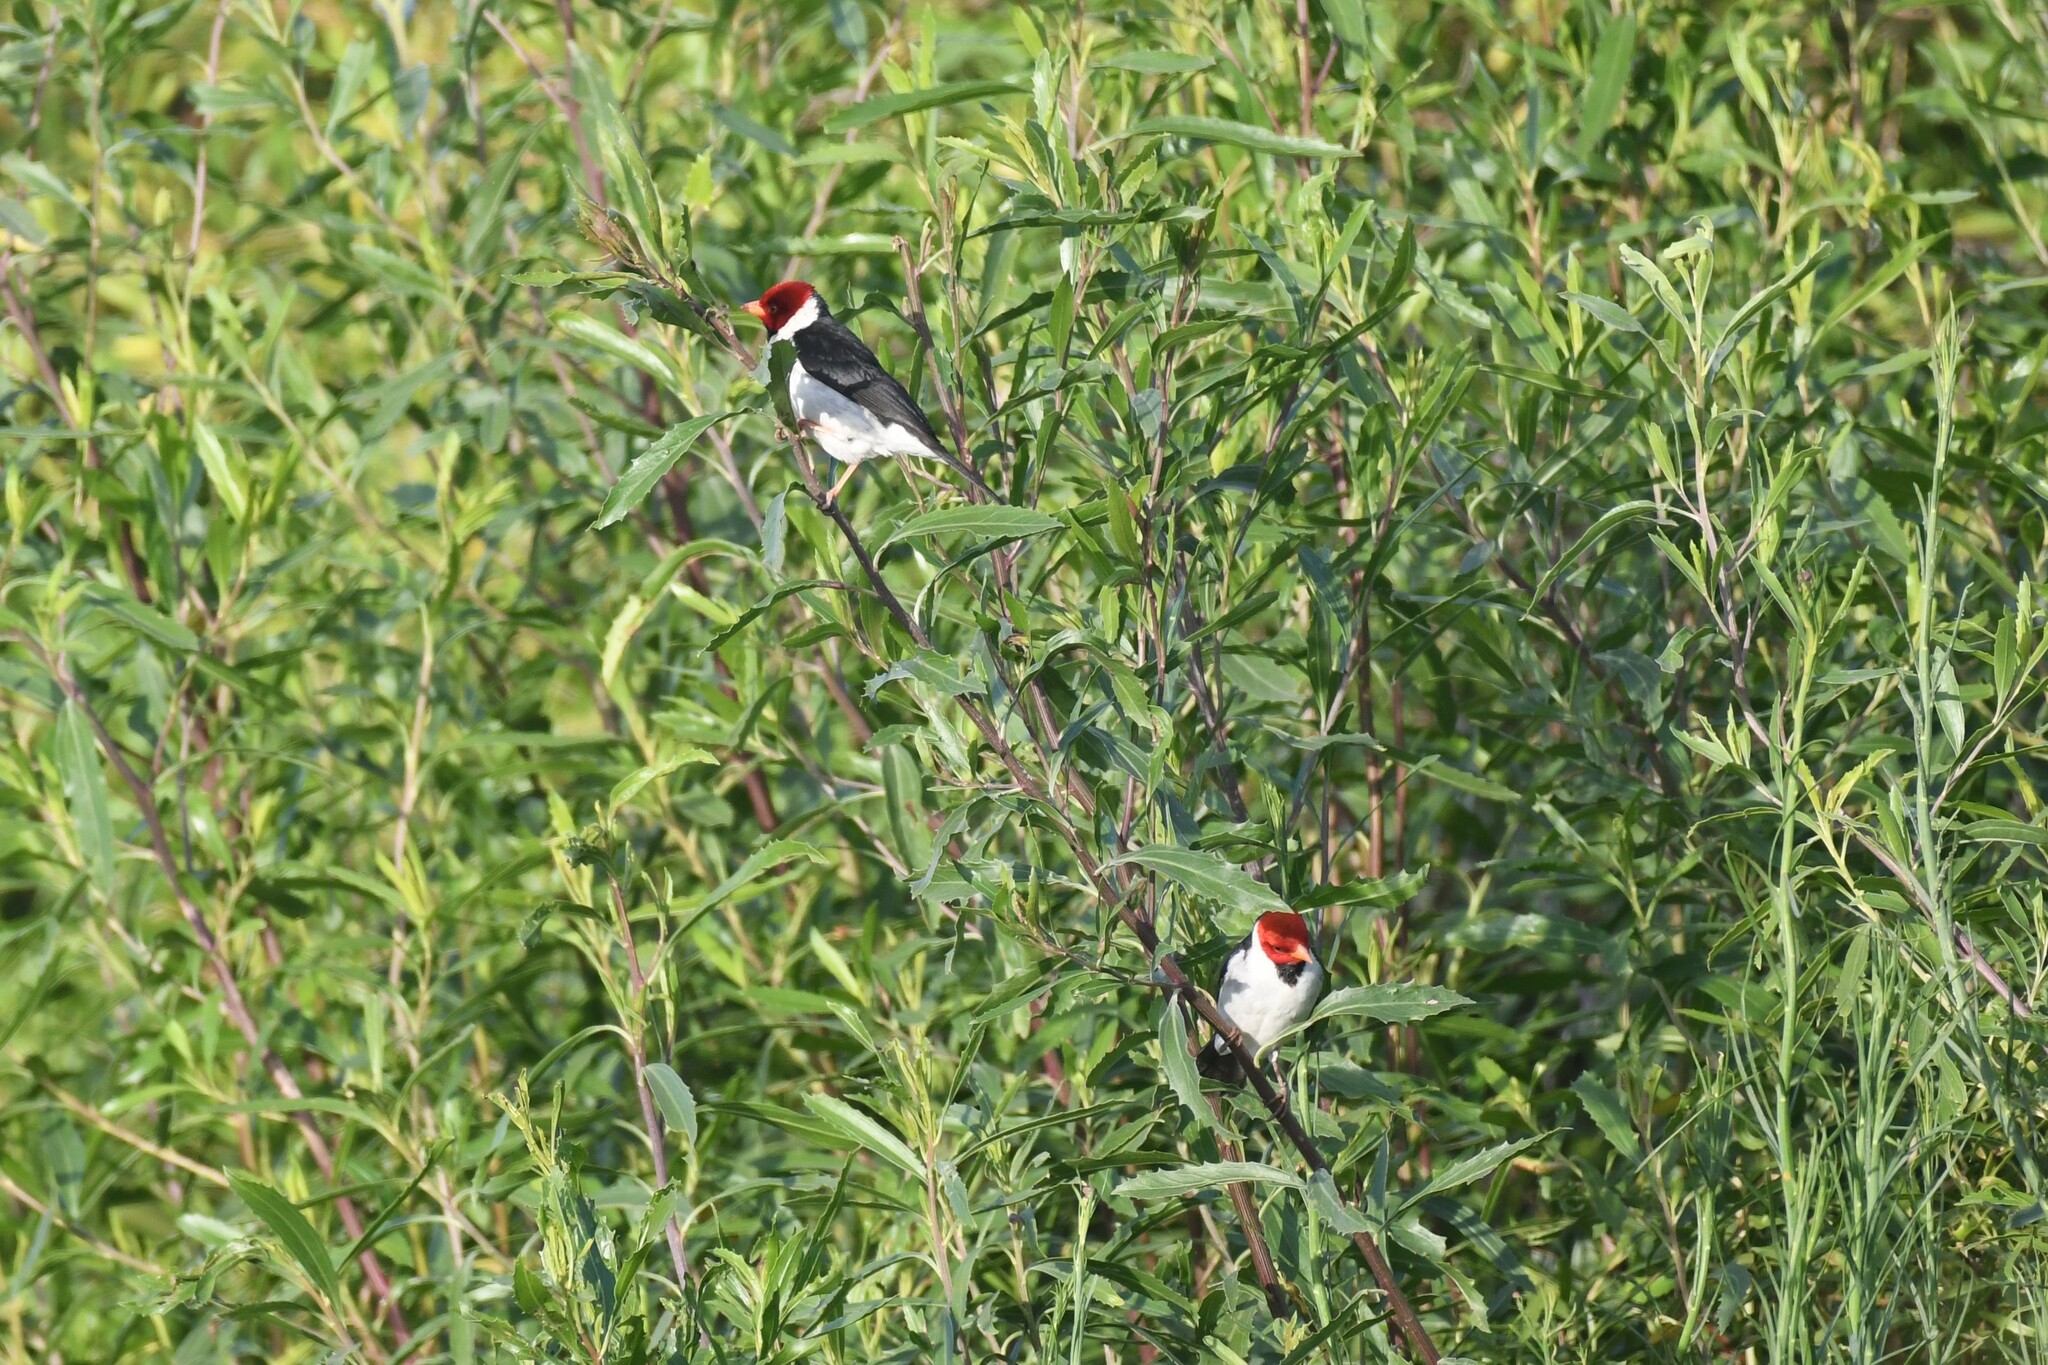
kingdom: Animalia
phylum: Chordata
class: Aves
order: Passeriformes
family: Thraupidae
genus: Paroaria
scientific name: Paroaria capitata
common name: Yellow-billed cardinal
